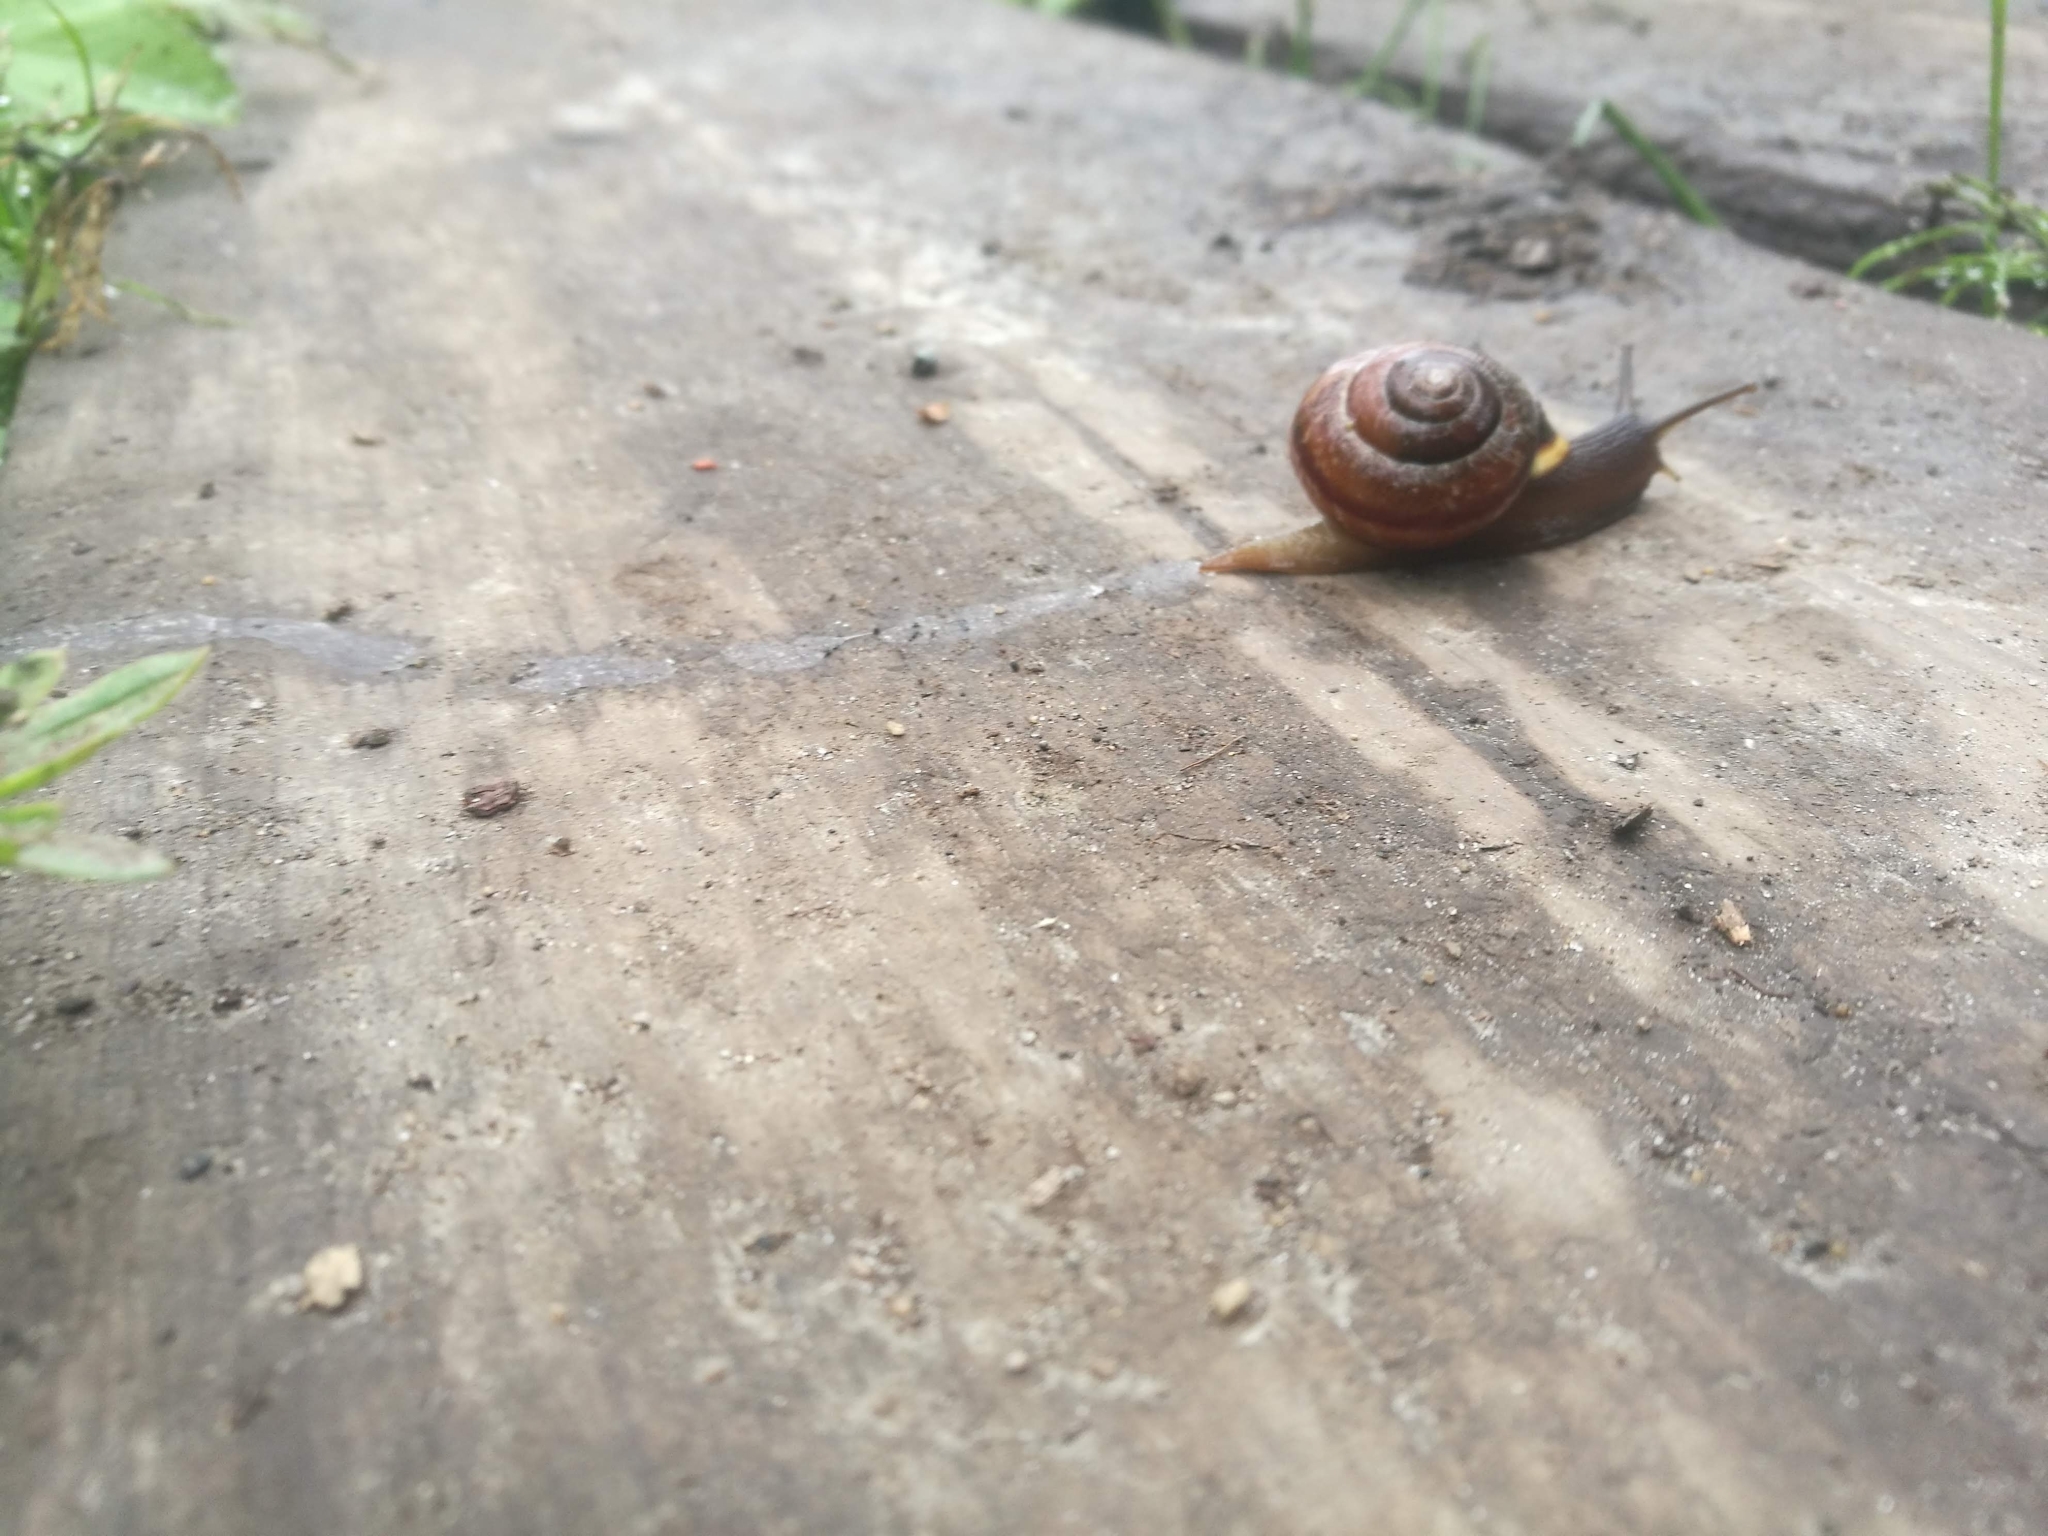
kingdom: Animalia
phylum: Mollusca
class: Gastropoda
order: Stylommatophora
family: Helicidae
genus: Arianta
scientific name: Arianta arbustorum
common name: Copse snail
